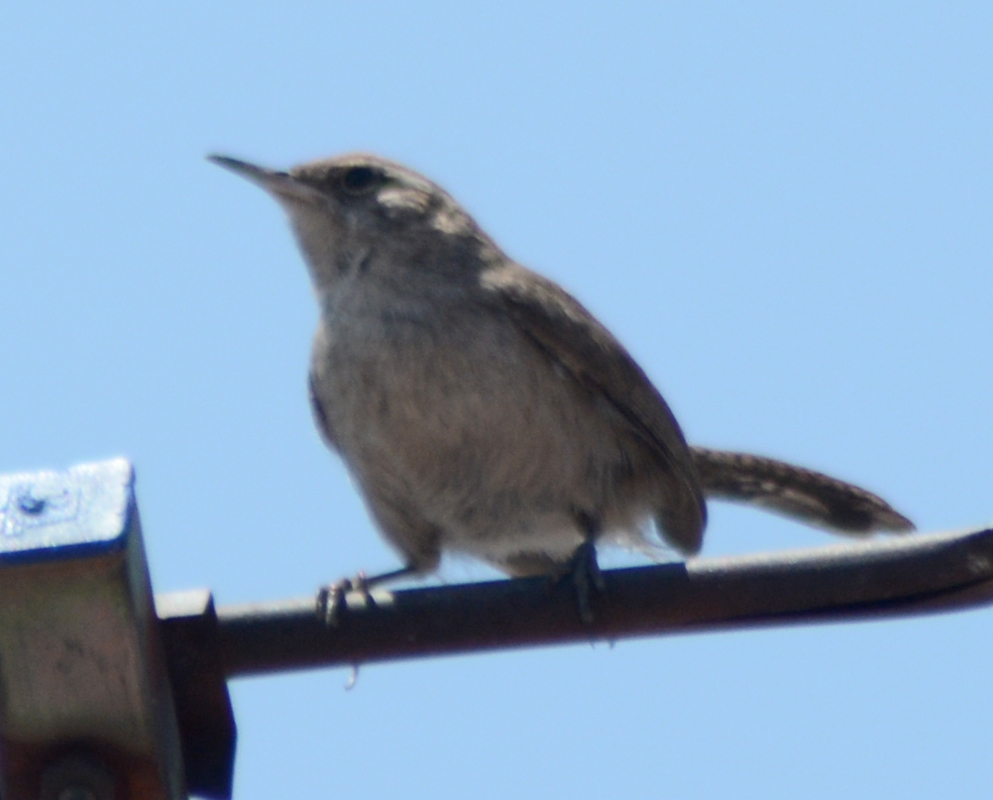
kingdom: Animalia
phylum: Chordata
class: Aves
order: Passeriformes
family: Troglodytidae
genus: Thryomanes
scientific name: Thryomanes bewickii
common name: Bewick's wren
